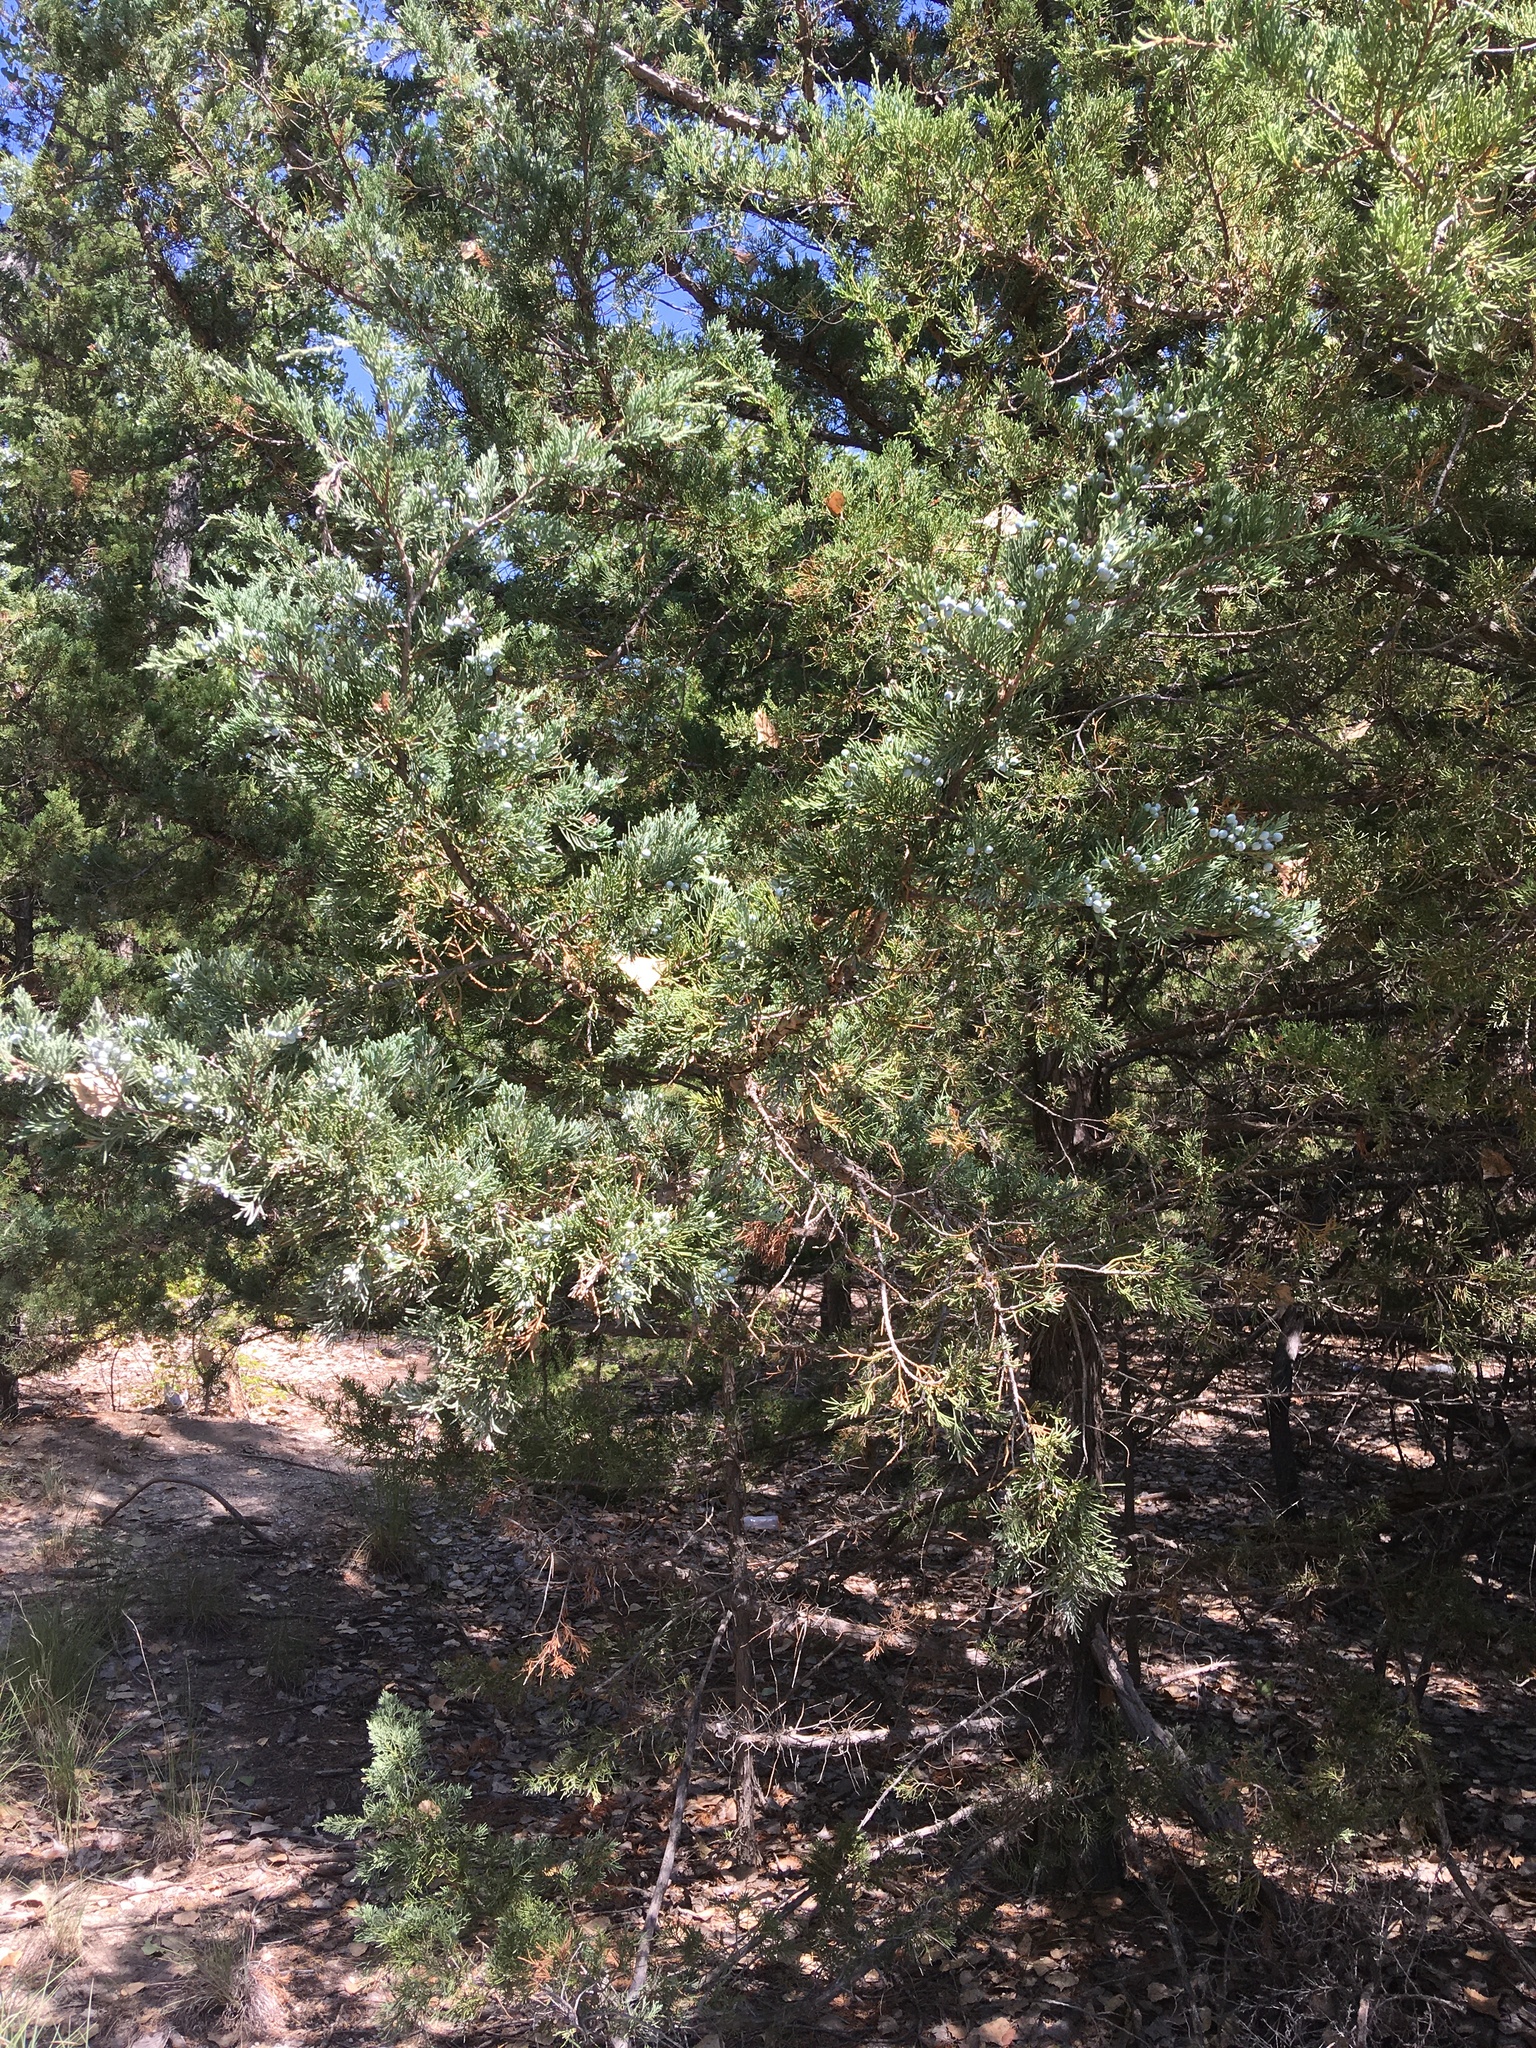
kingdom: Plantae
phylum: Tracheophyta
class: Pinopsida
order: Pinales
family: Cupressaceae
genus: Juniperus
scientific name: Juniperus virginiana
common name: Red juniper
